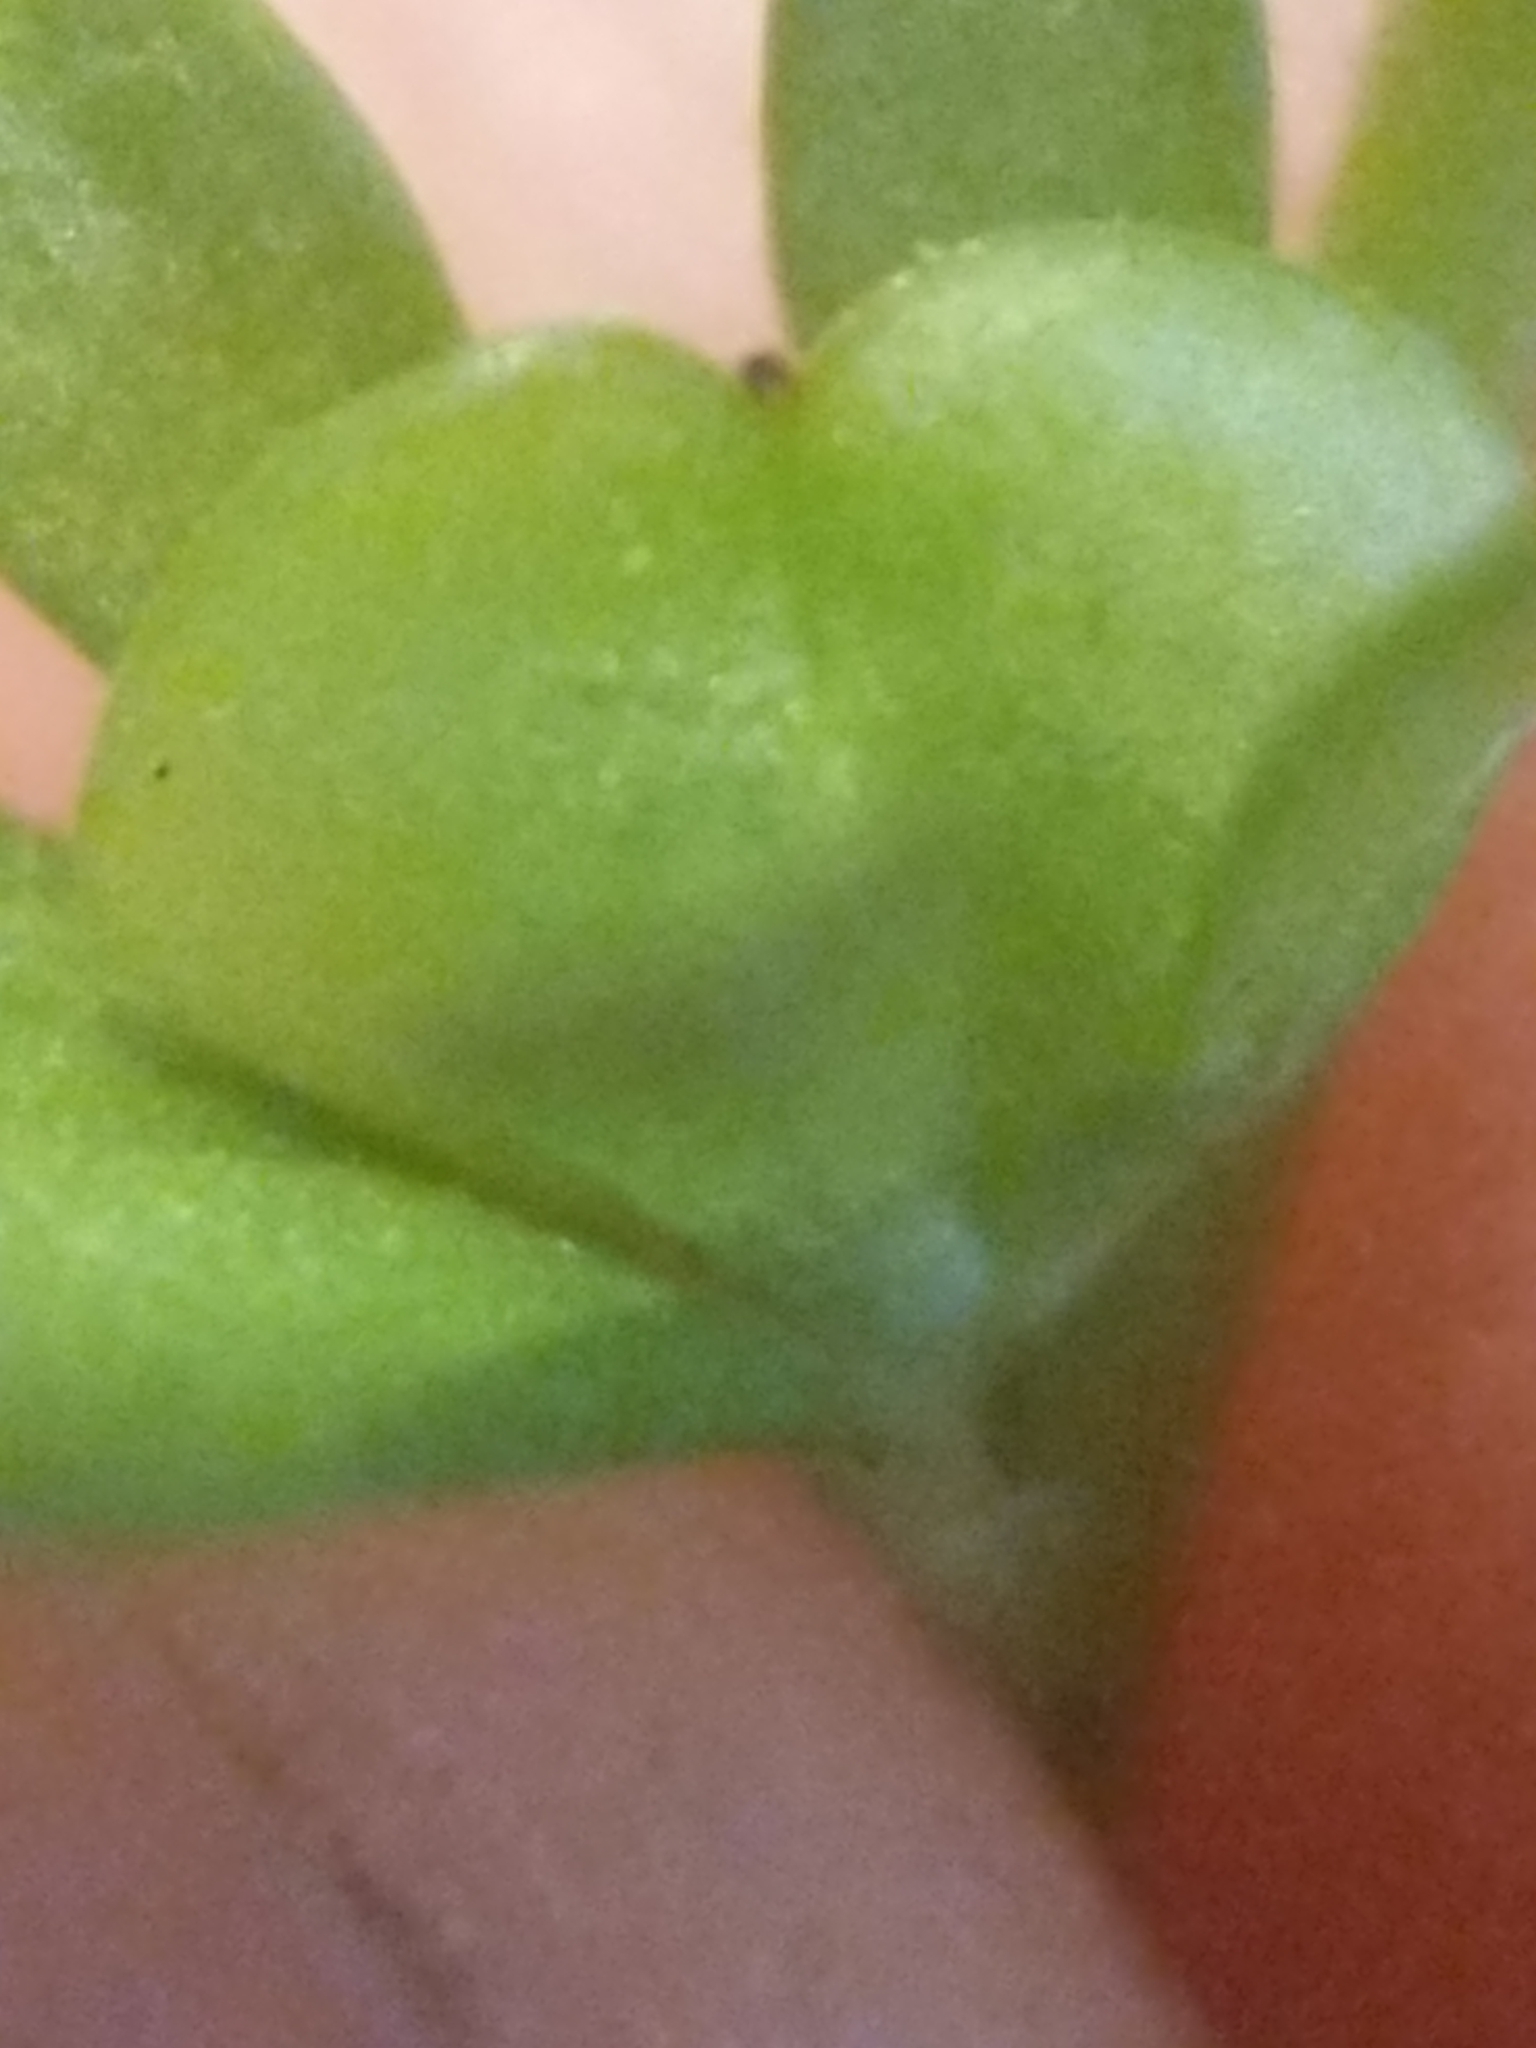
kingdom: Plantae
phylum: Tracheophyta
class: Magnoliopsida
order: Lamiales
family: Plantaginaceae
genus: Veronica
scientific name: Veronica peregrina
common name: Neckweed
